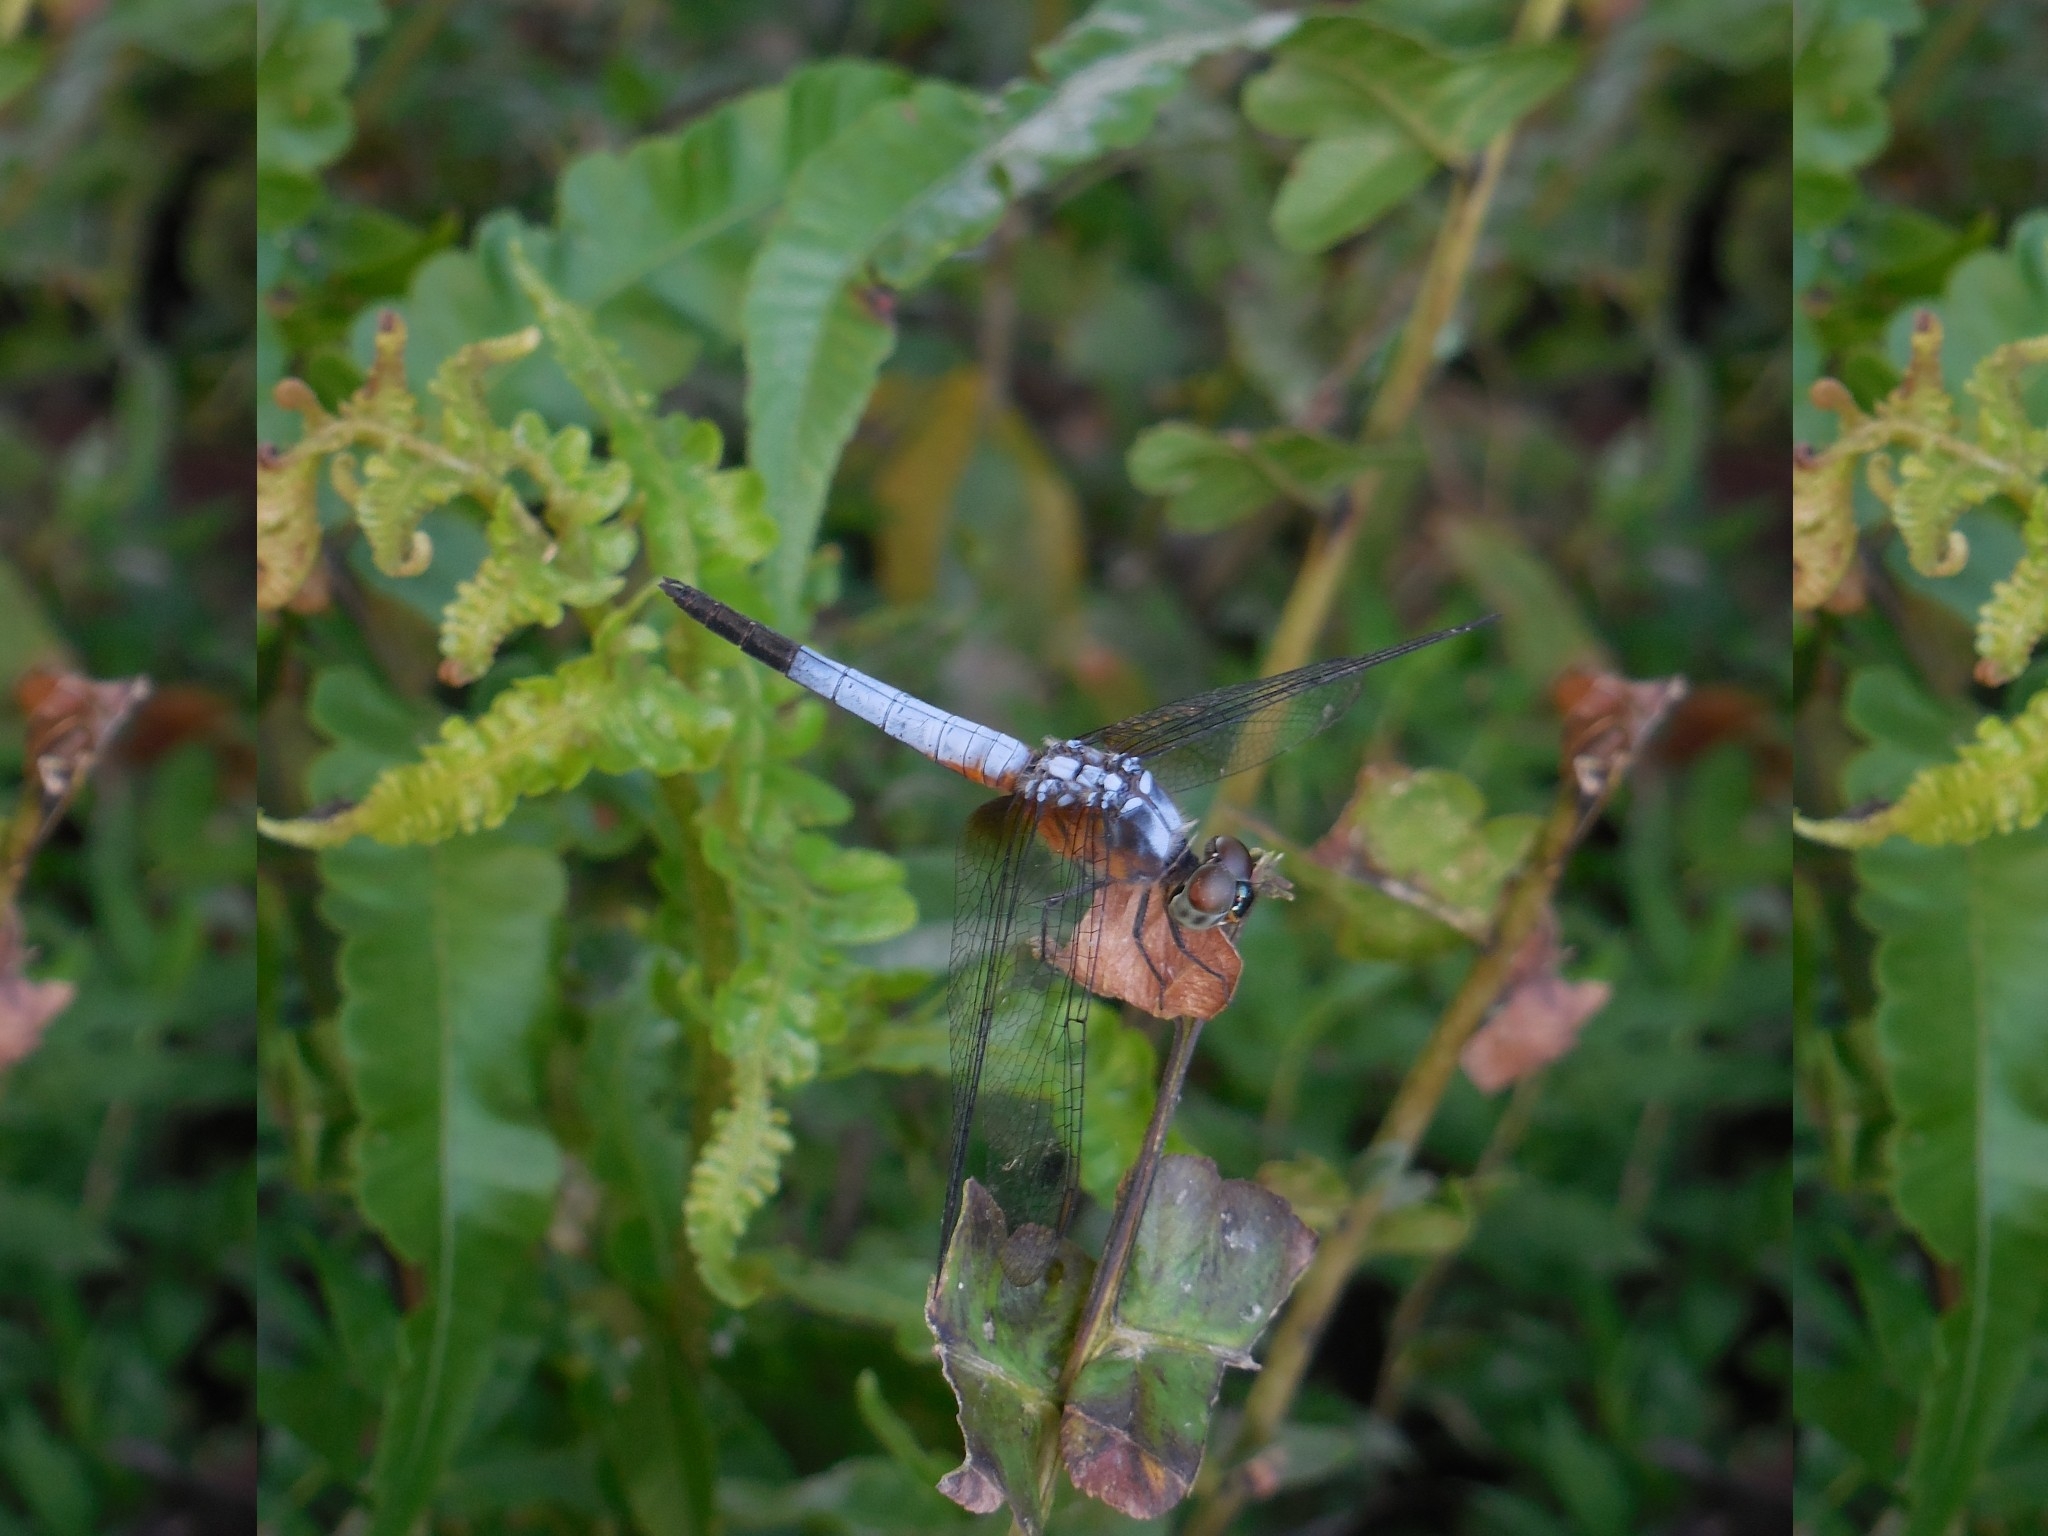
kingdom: Animalia
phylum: Arthropoda
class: Insecta
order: Odonata
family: Libellulidae
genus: Brachydiplax
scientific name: Brachydiplax chalybea
